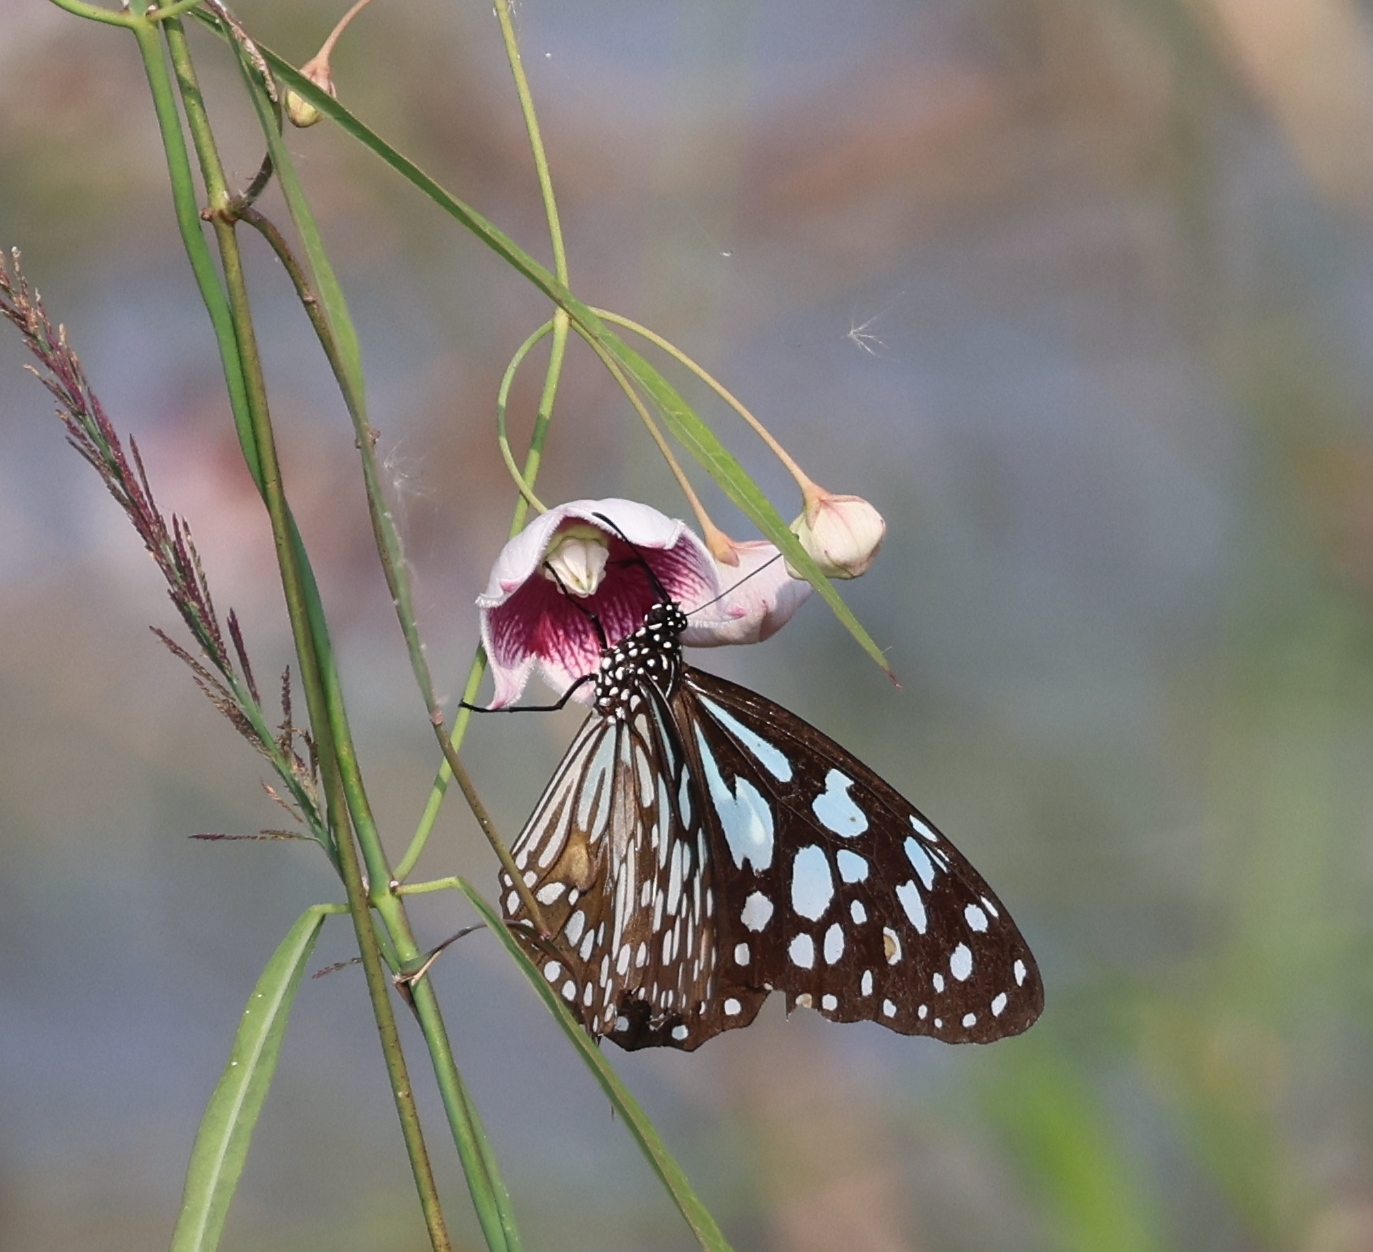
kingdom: Animalia
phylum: Arthropoda
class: Insecta
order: Lepidoptera
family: Nymphalidae
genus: Tirumala
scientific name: Tirumala limniace
